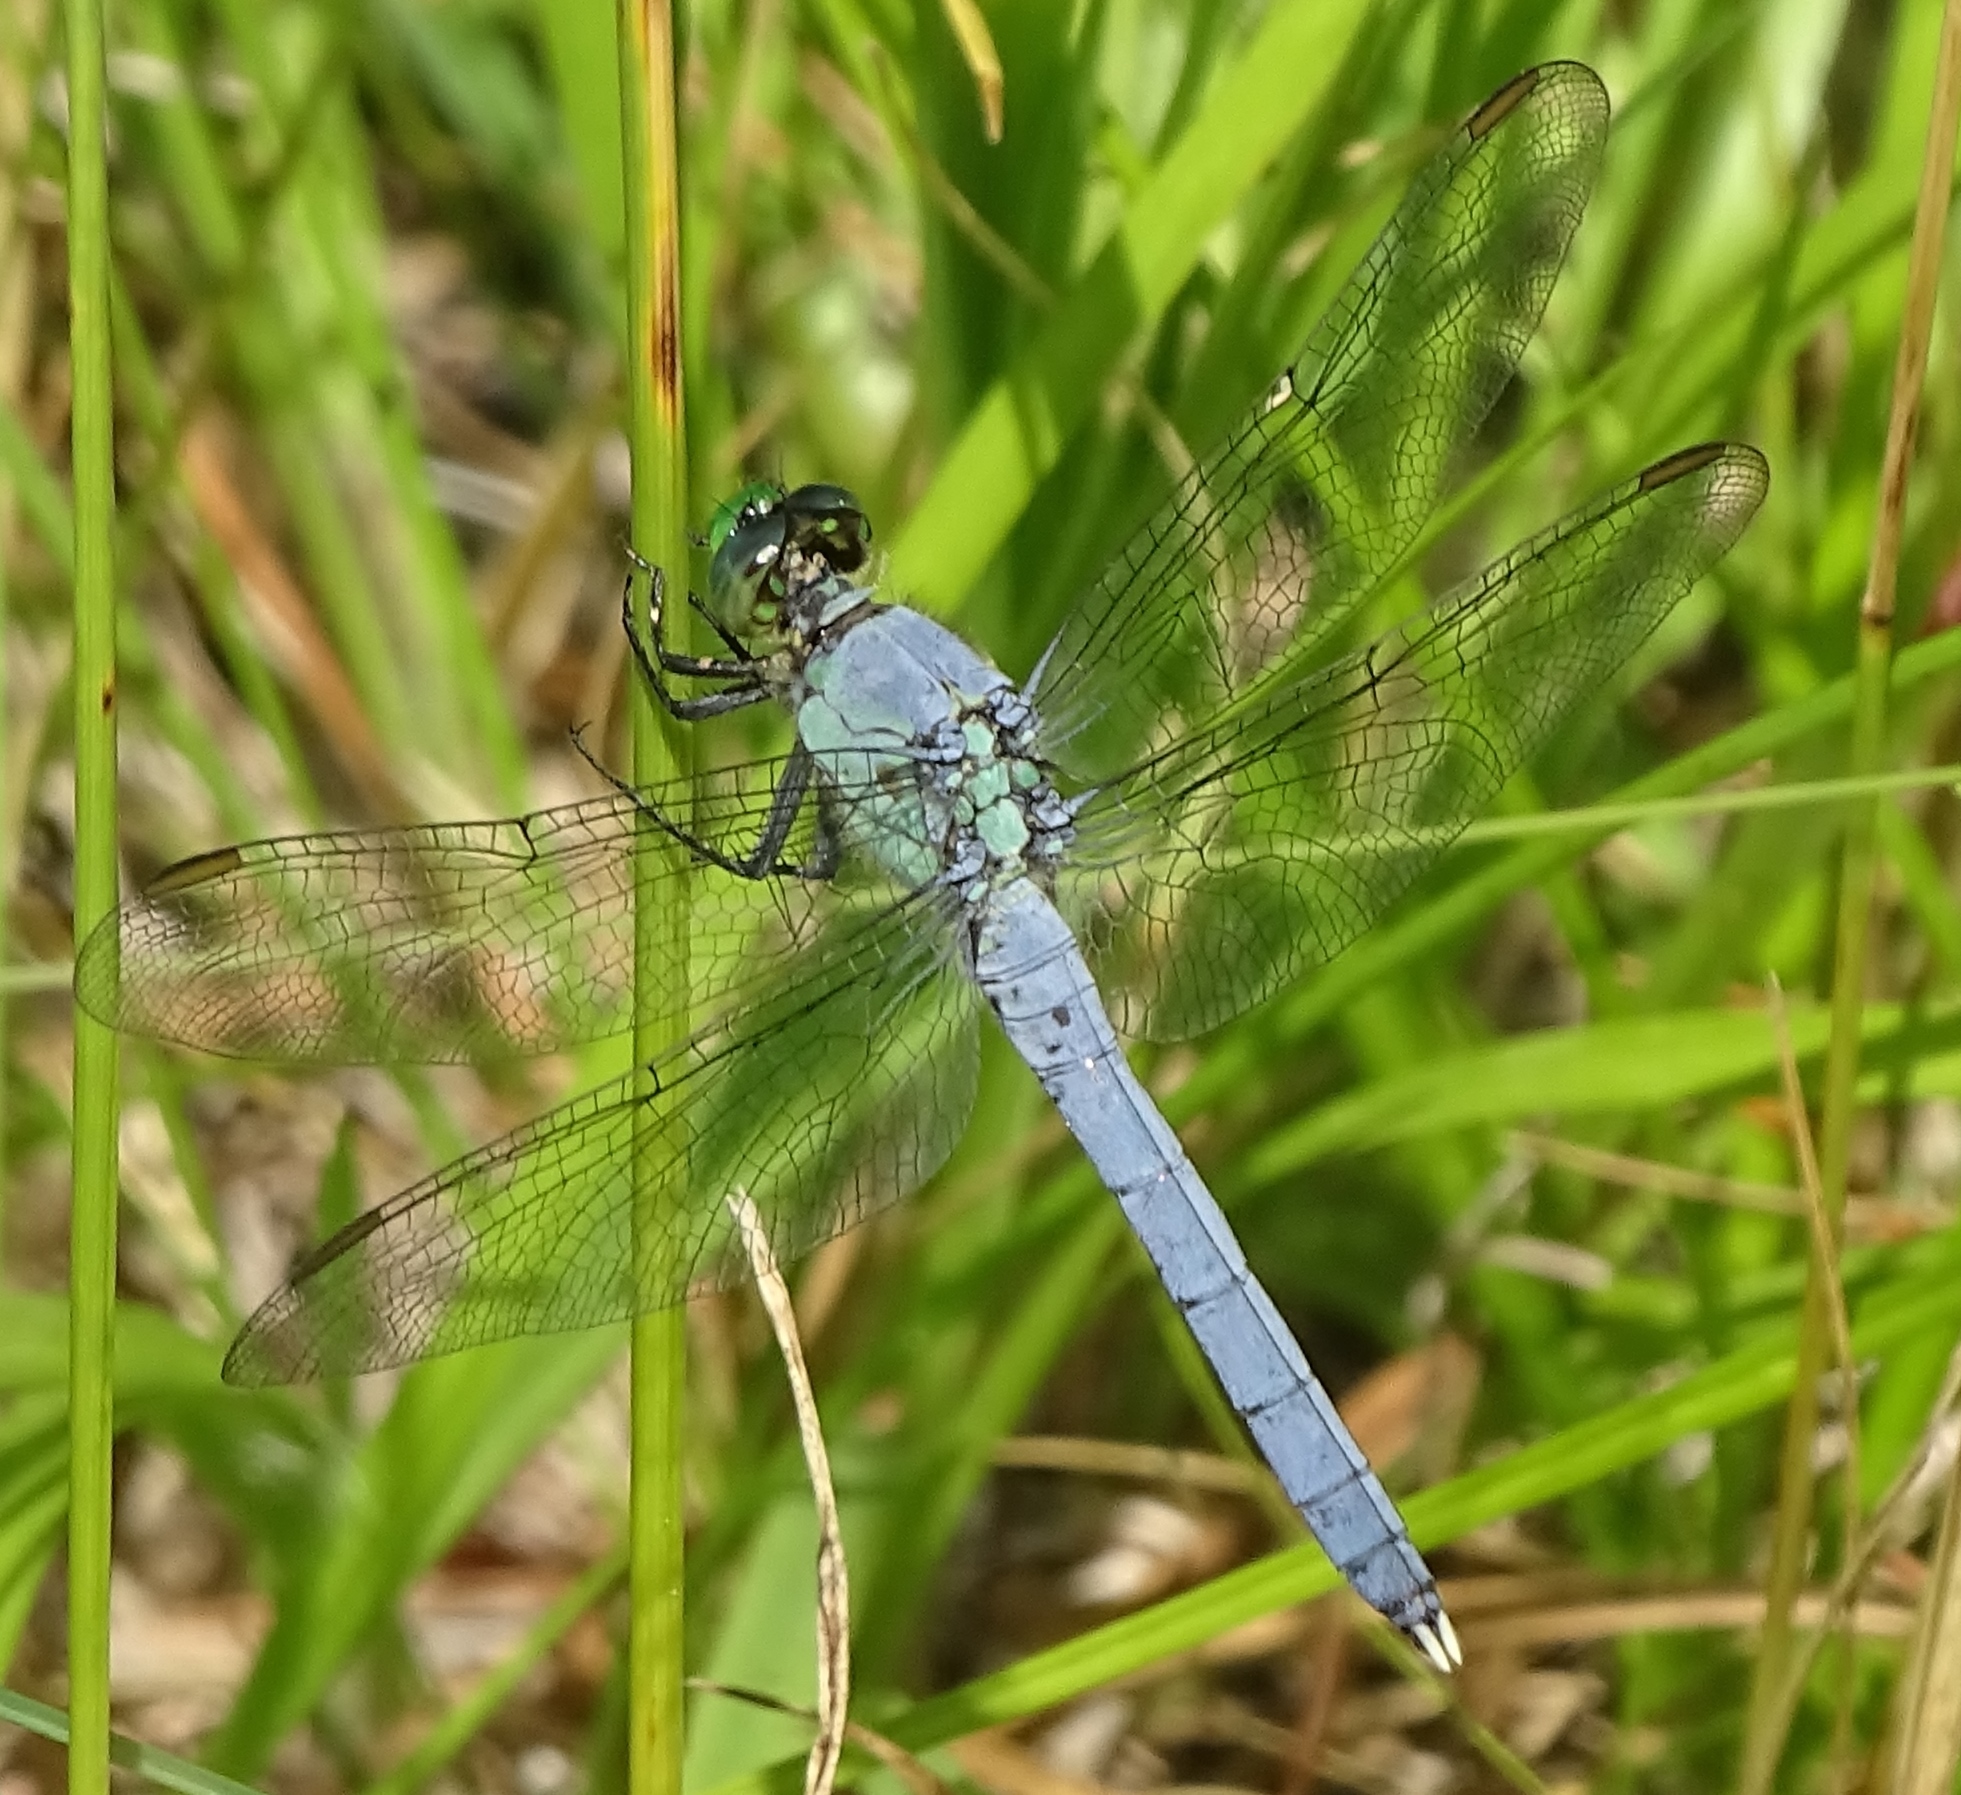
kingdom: Animalia
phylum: Arthropoda
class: Insecta
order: Odonata
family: Libellulidae
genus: Erythemis
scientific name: Erythemis simplicicollis
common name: Eastern pondhawk
